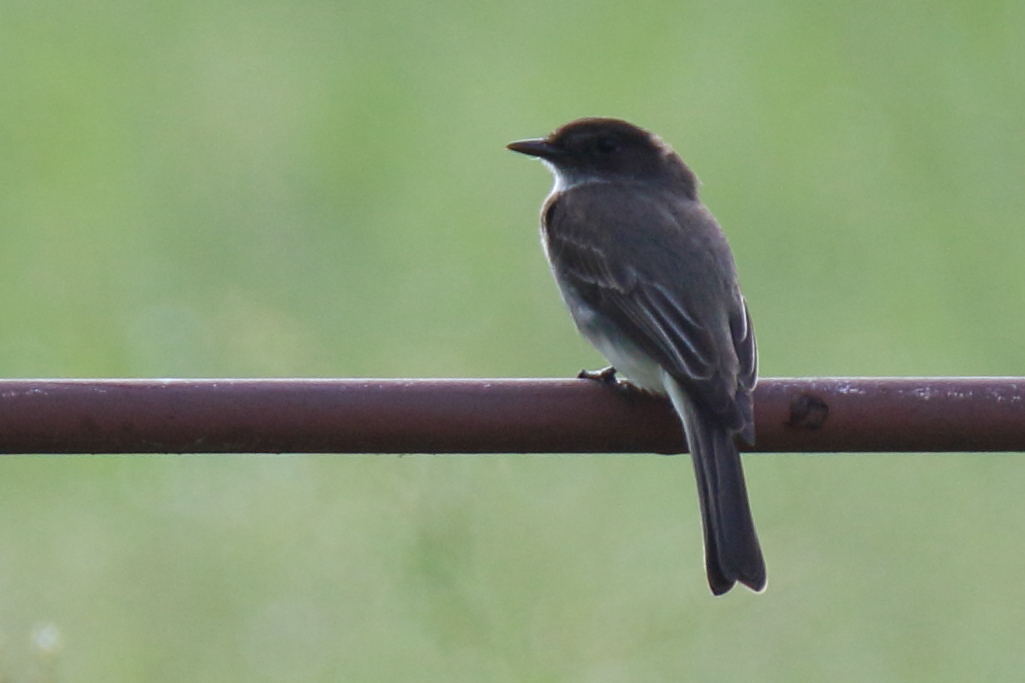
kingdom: Animalia
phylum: Chordata
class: Aves
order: Passeriformes
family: Tyrannidae
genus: Sayornis
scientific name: Sayornis phoebe
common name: Eastern phoebe
